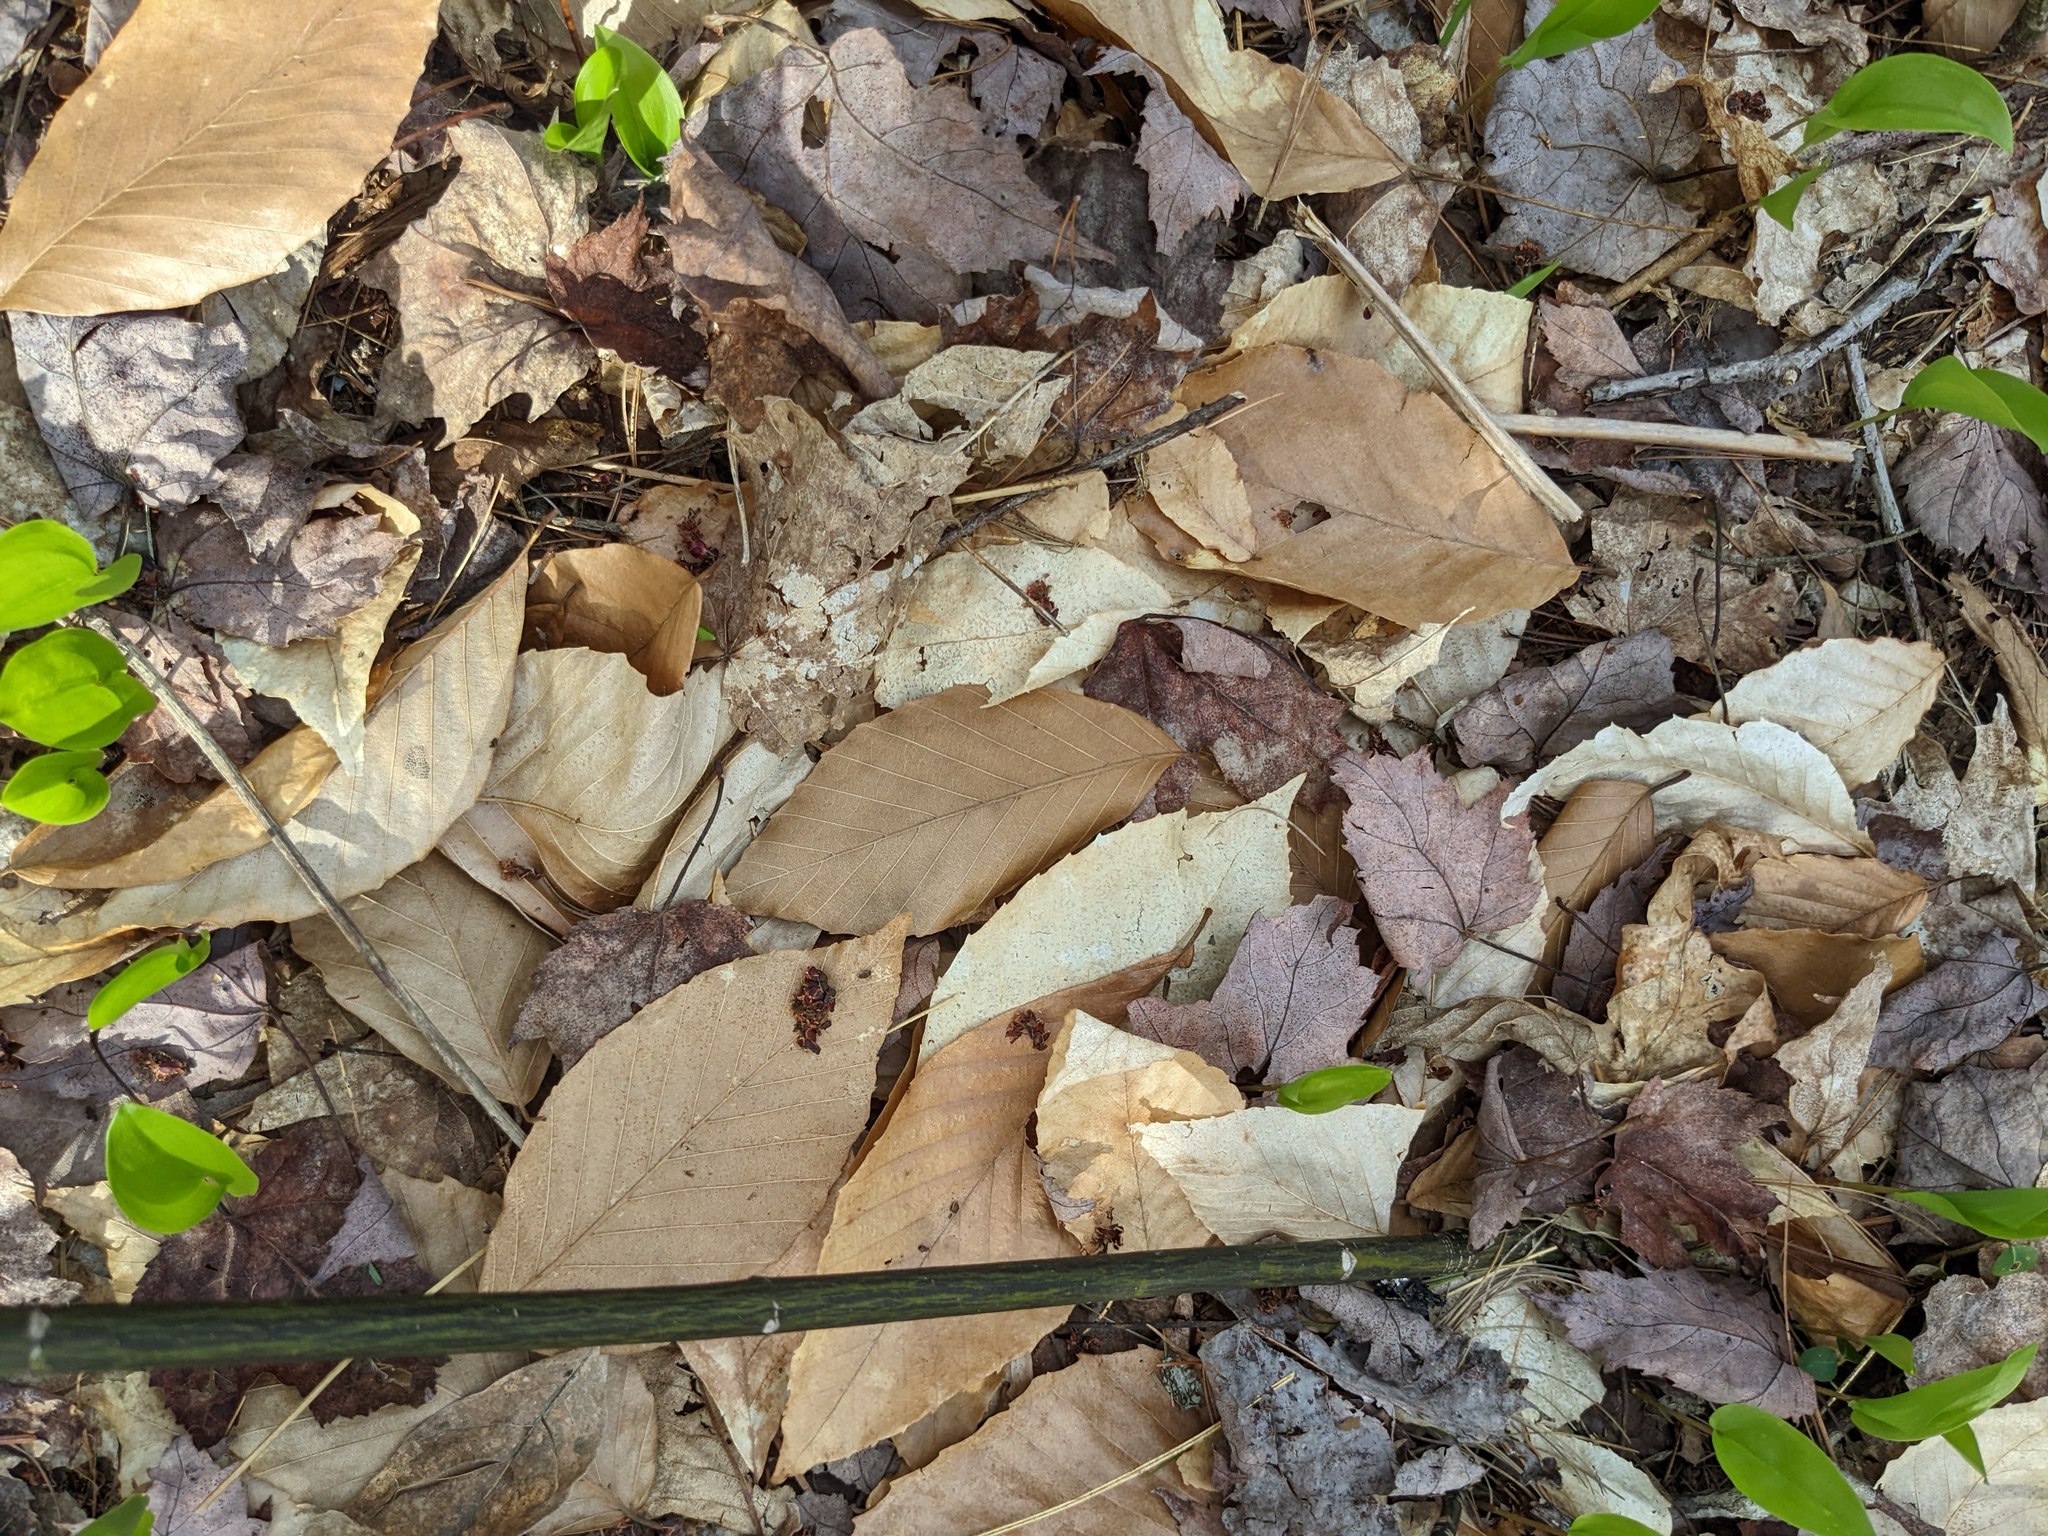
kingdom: Plantae
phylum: Tracheophyta
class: Magnoliopsida
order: Fagales
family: Fagaceae
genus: Fagus
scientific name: Fagus grandifolia
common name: American beech
